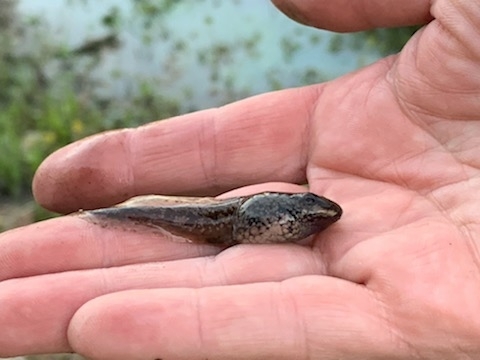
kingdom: Animalia
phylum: Chordata
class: Amphibia
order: Anura
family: Ranidae
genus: Lithobates
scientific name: Lithobates sphenocephalus
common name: Southern leopard frog
